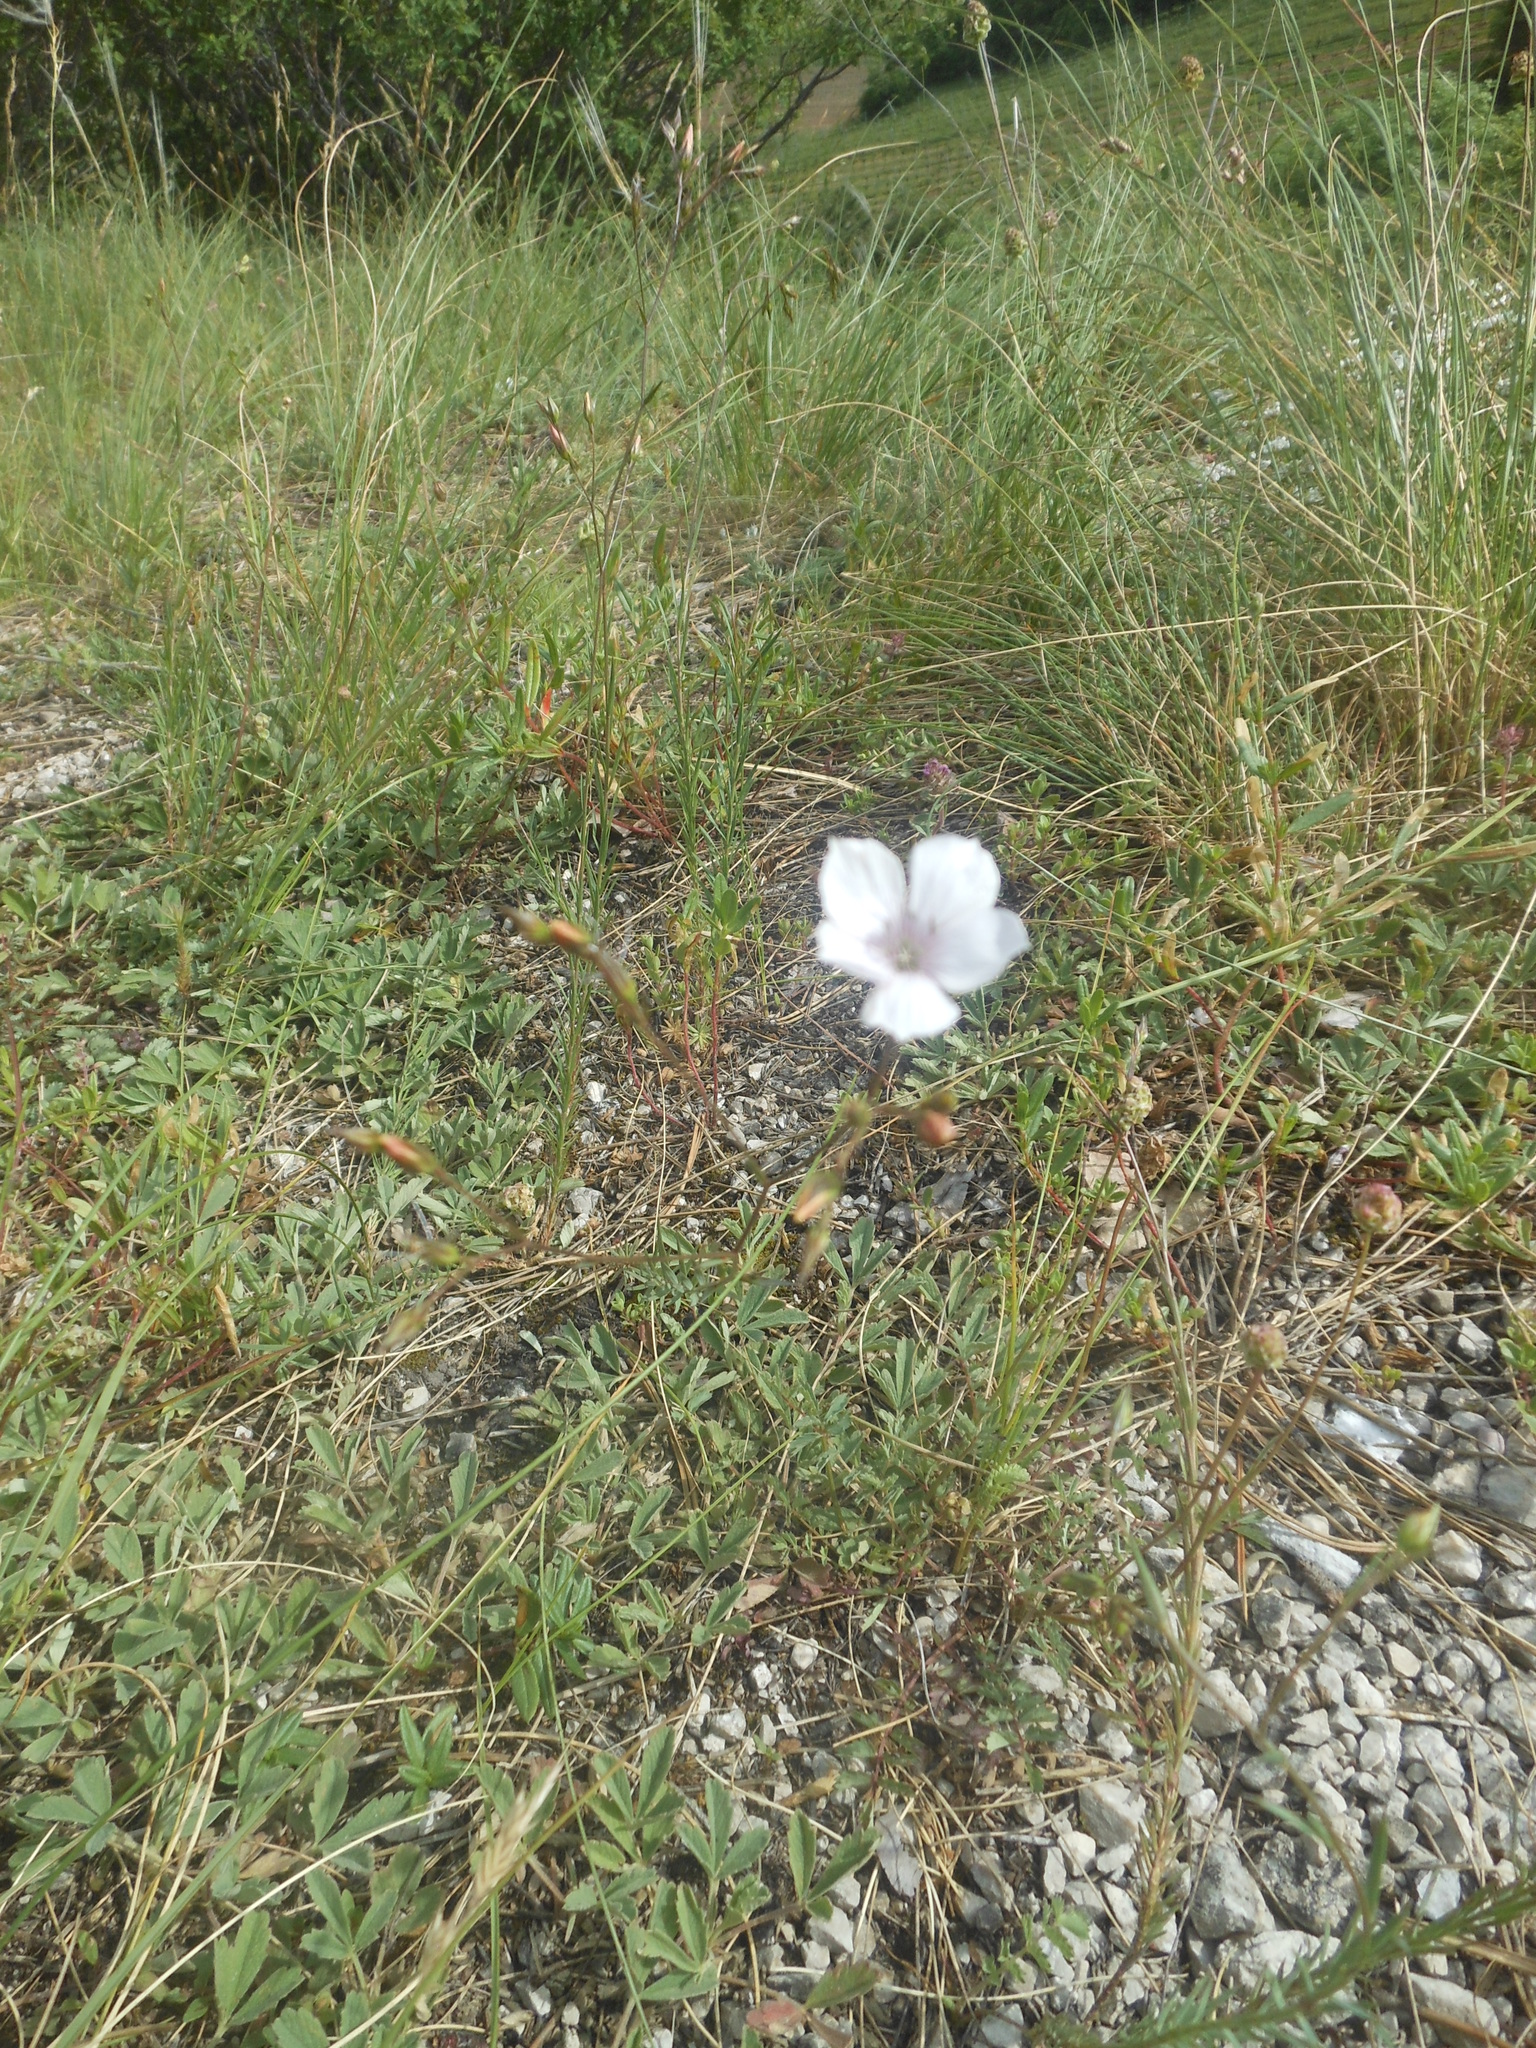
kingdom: Plantae
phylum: Tracheophyta
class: Magnoliopsida
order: Malpighiales
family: Linaceae
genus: Linum
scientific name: Linum tenuifolium
